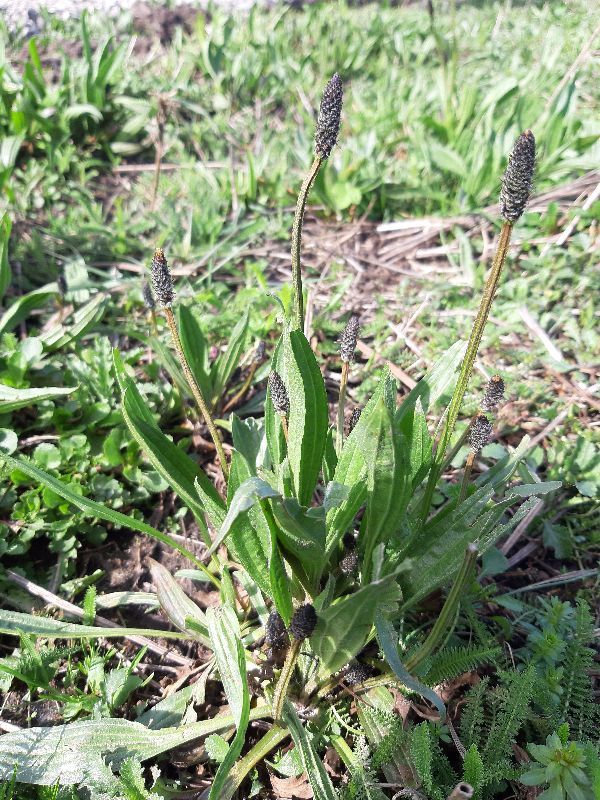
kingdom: Plantae
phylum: Tracheophyta
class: Magnoliopsida
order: Lamiales
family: Plantaginaceae
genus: Plantago
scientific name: Plantago lanceolata
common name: Ribwort plantain
